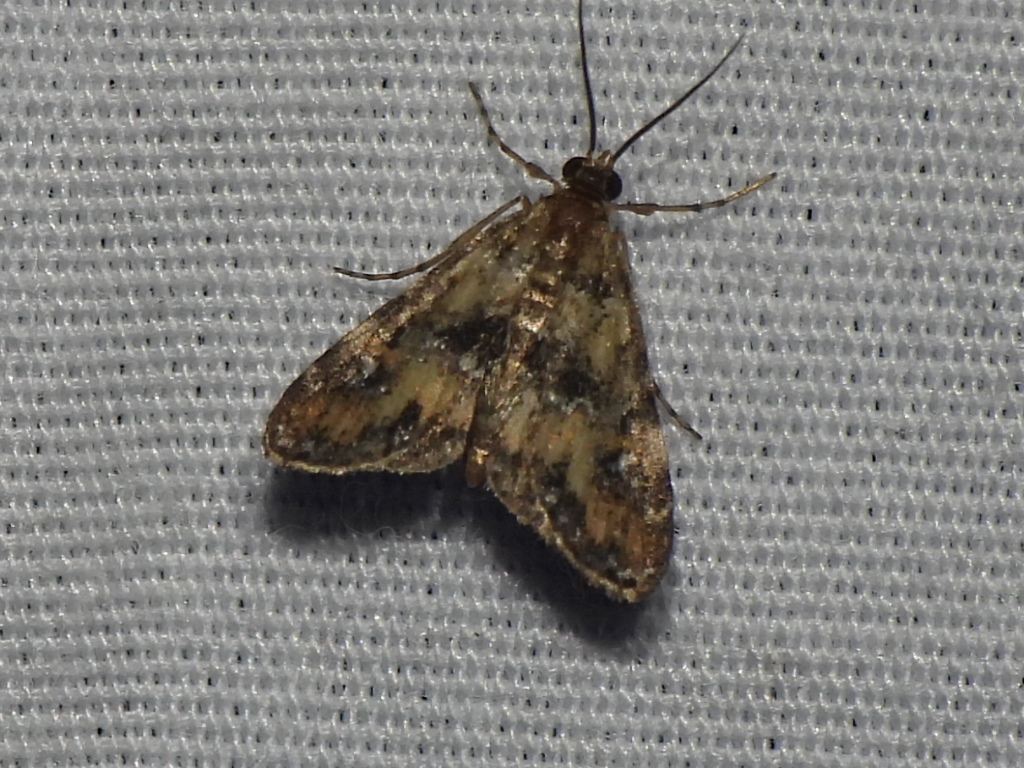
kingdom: Animalia
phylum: Arthropoda
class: Insecta
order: Lepidoptera
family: Crambidae
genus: Elophila
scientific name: Elophila obliteralis
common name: Waterlily leafcutter moth
